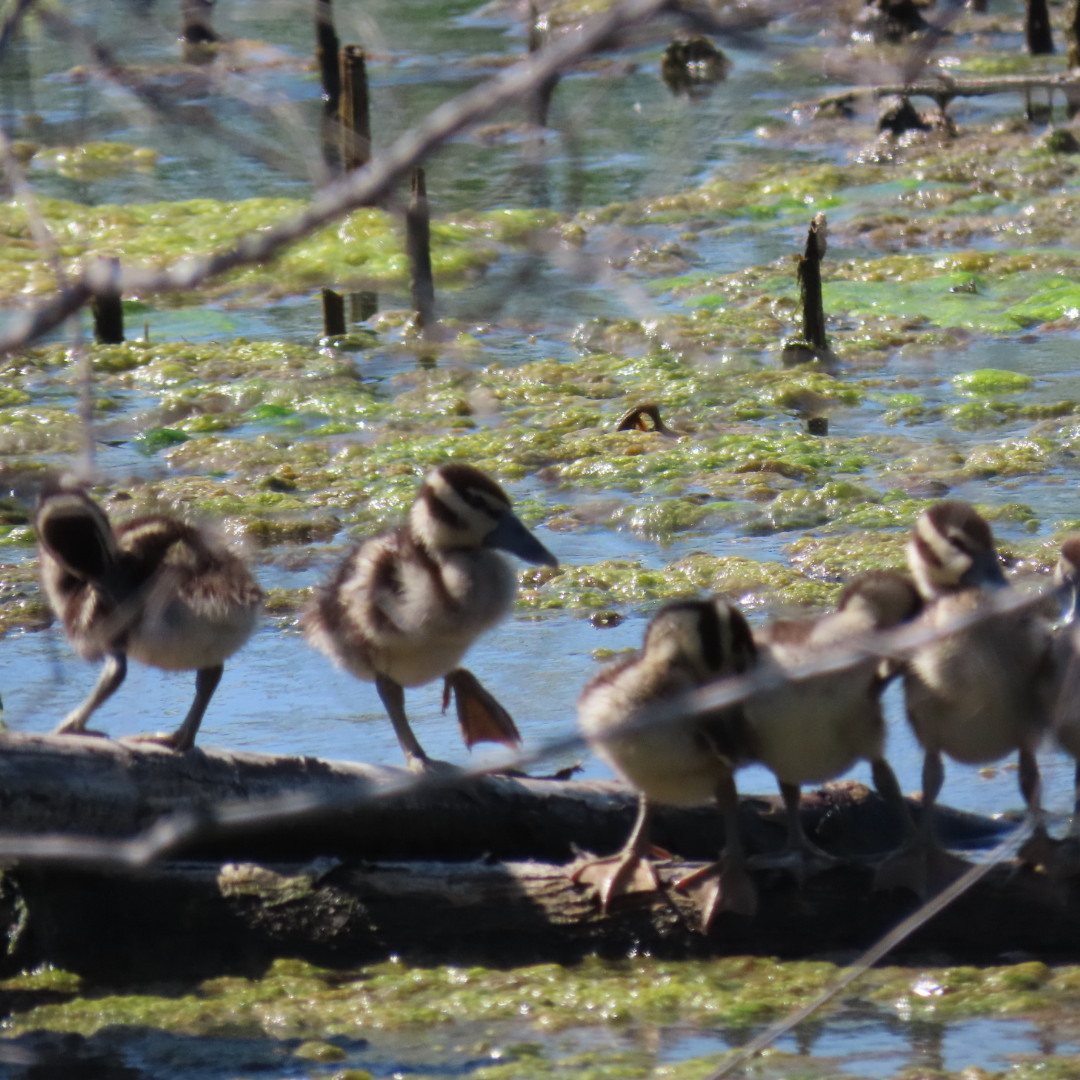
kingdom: Animalia
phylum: Chordata
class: Aves
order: Anseriformes
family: Anatidae
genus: Dendrocygna
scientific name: Dendrocygna autumnalis
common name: Black-bellied whistling duck
